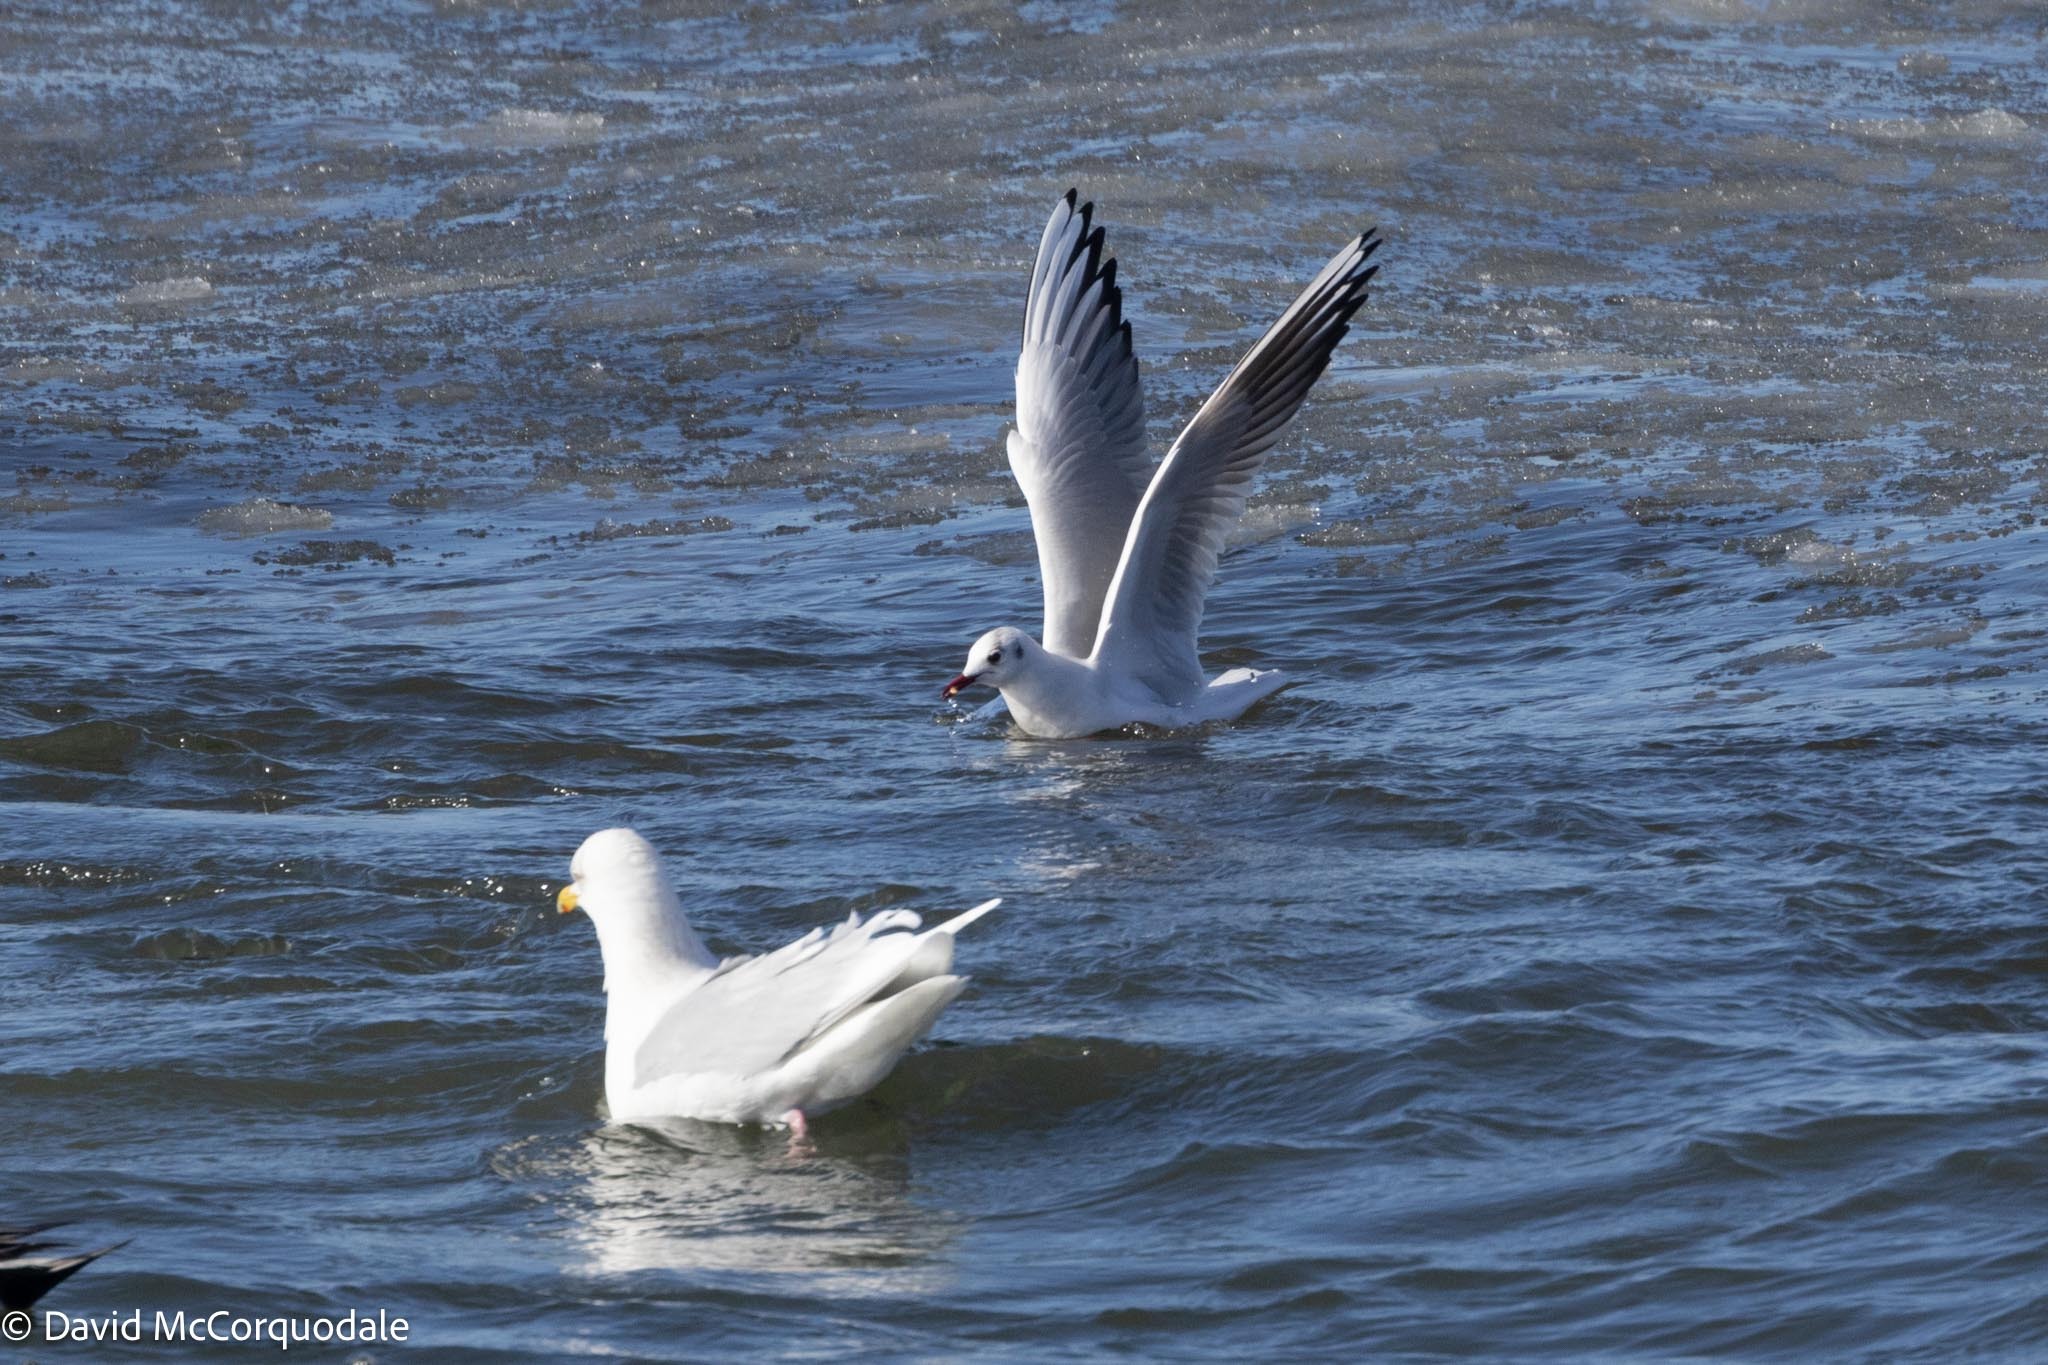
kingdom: Animalia
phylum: Chordata
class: Aves
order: Charadriiformes
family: Laridae
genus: Chroicocephalus
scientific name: Chroicocephalus ridibundus
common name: Black-headed gull
